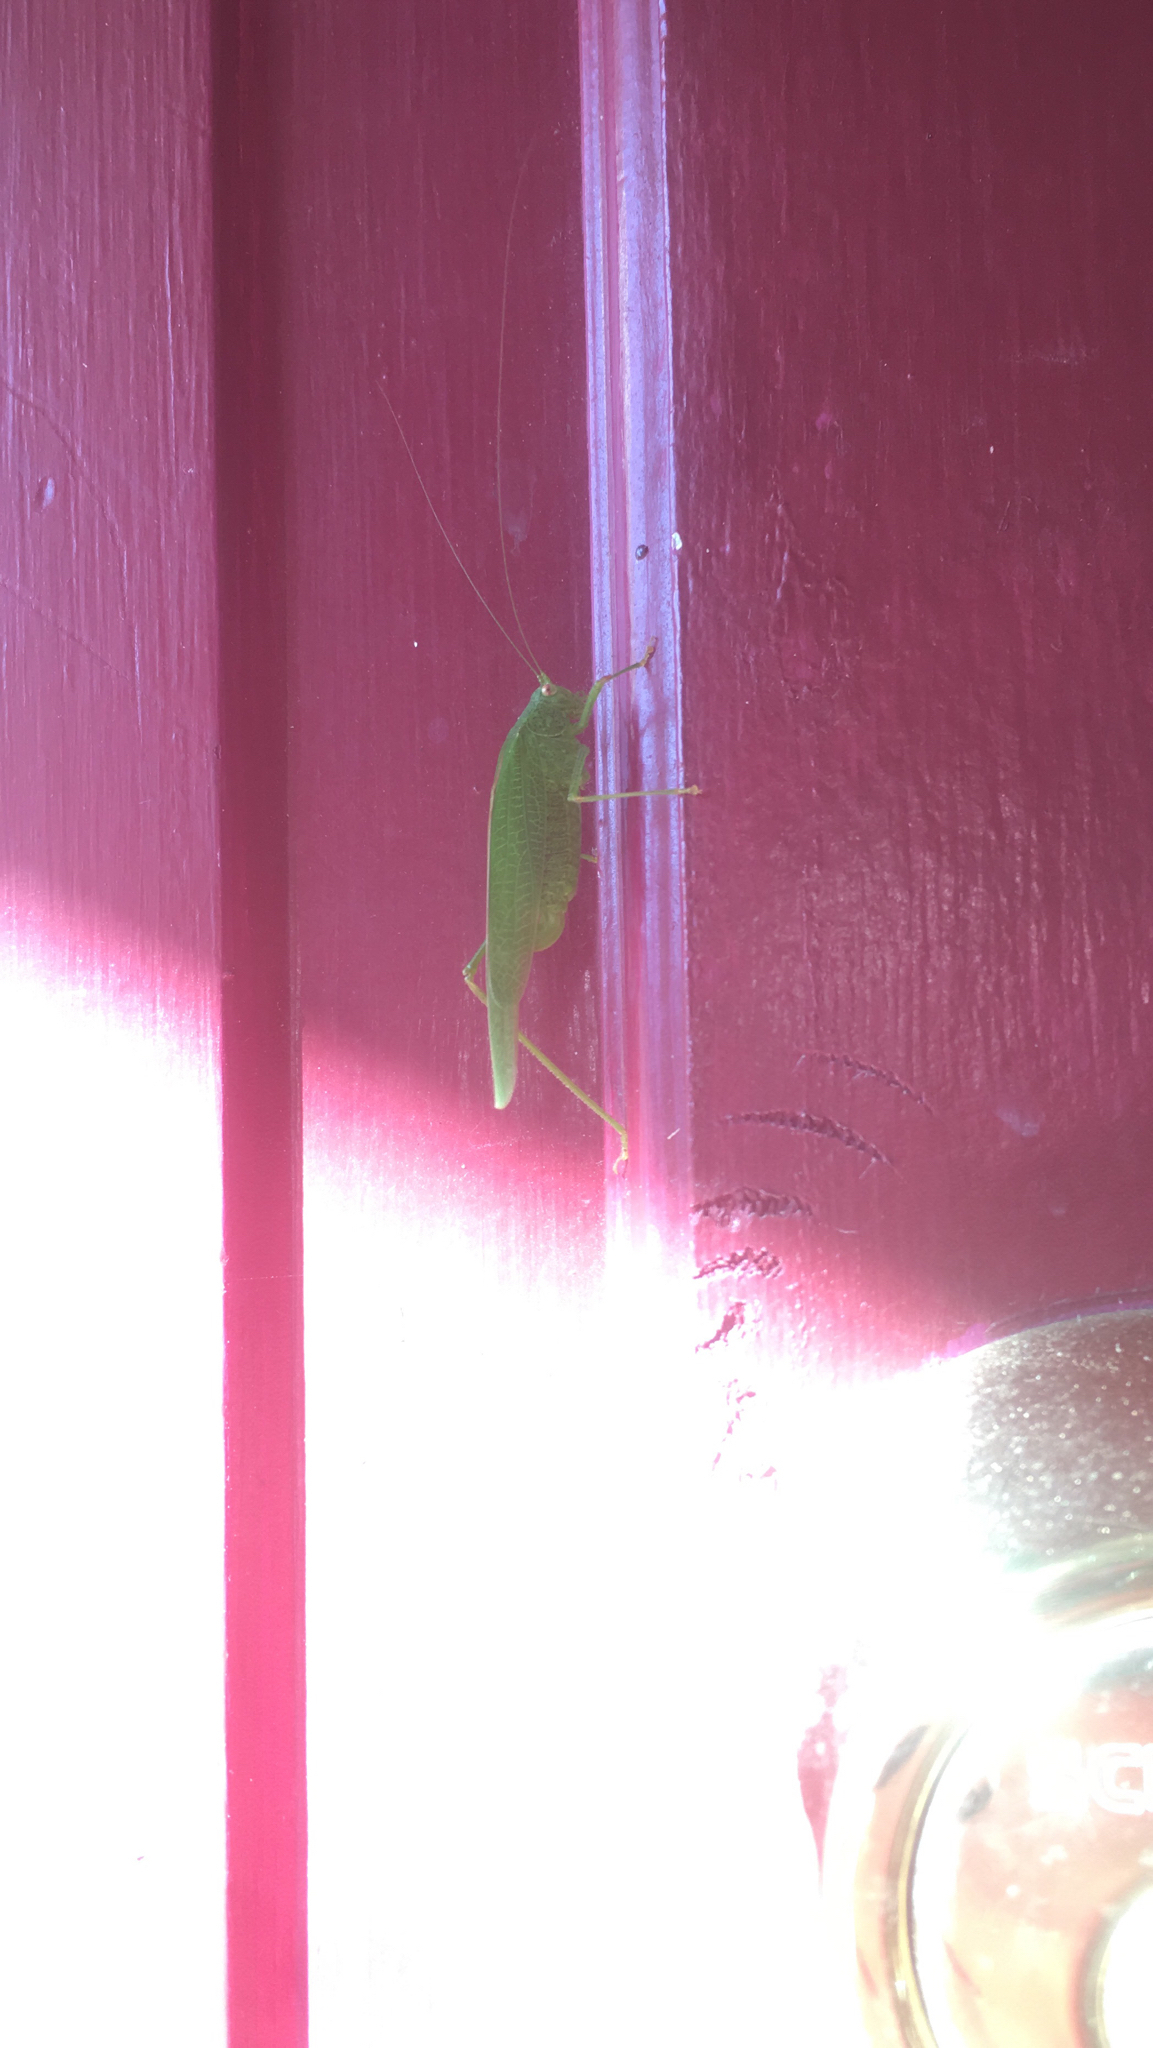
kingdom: Animalia
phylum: Arthropoda
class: Insecta
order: Orthoptera
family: Tettigoniidae
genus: Phaneroptera
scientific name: Phaneroptera nana
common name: Southern sickle bush-cricket
